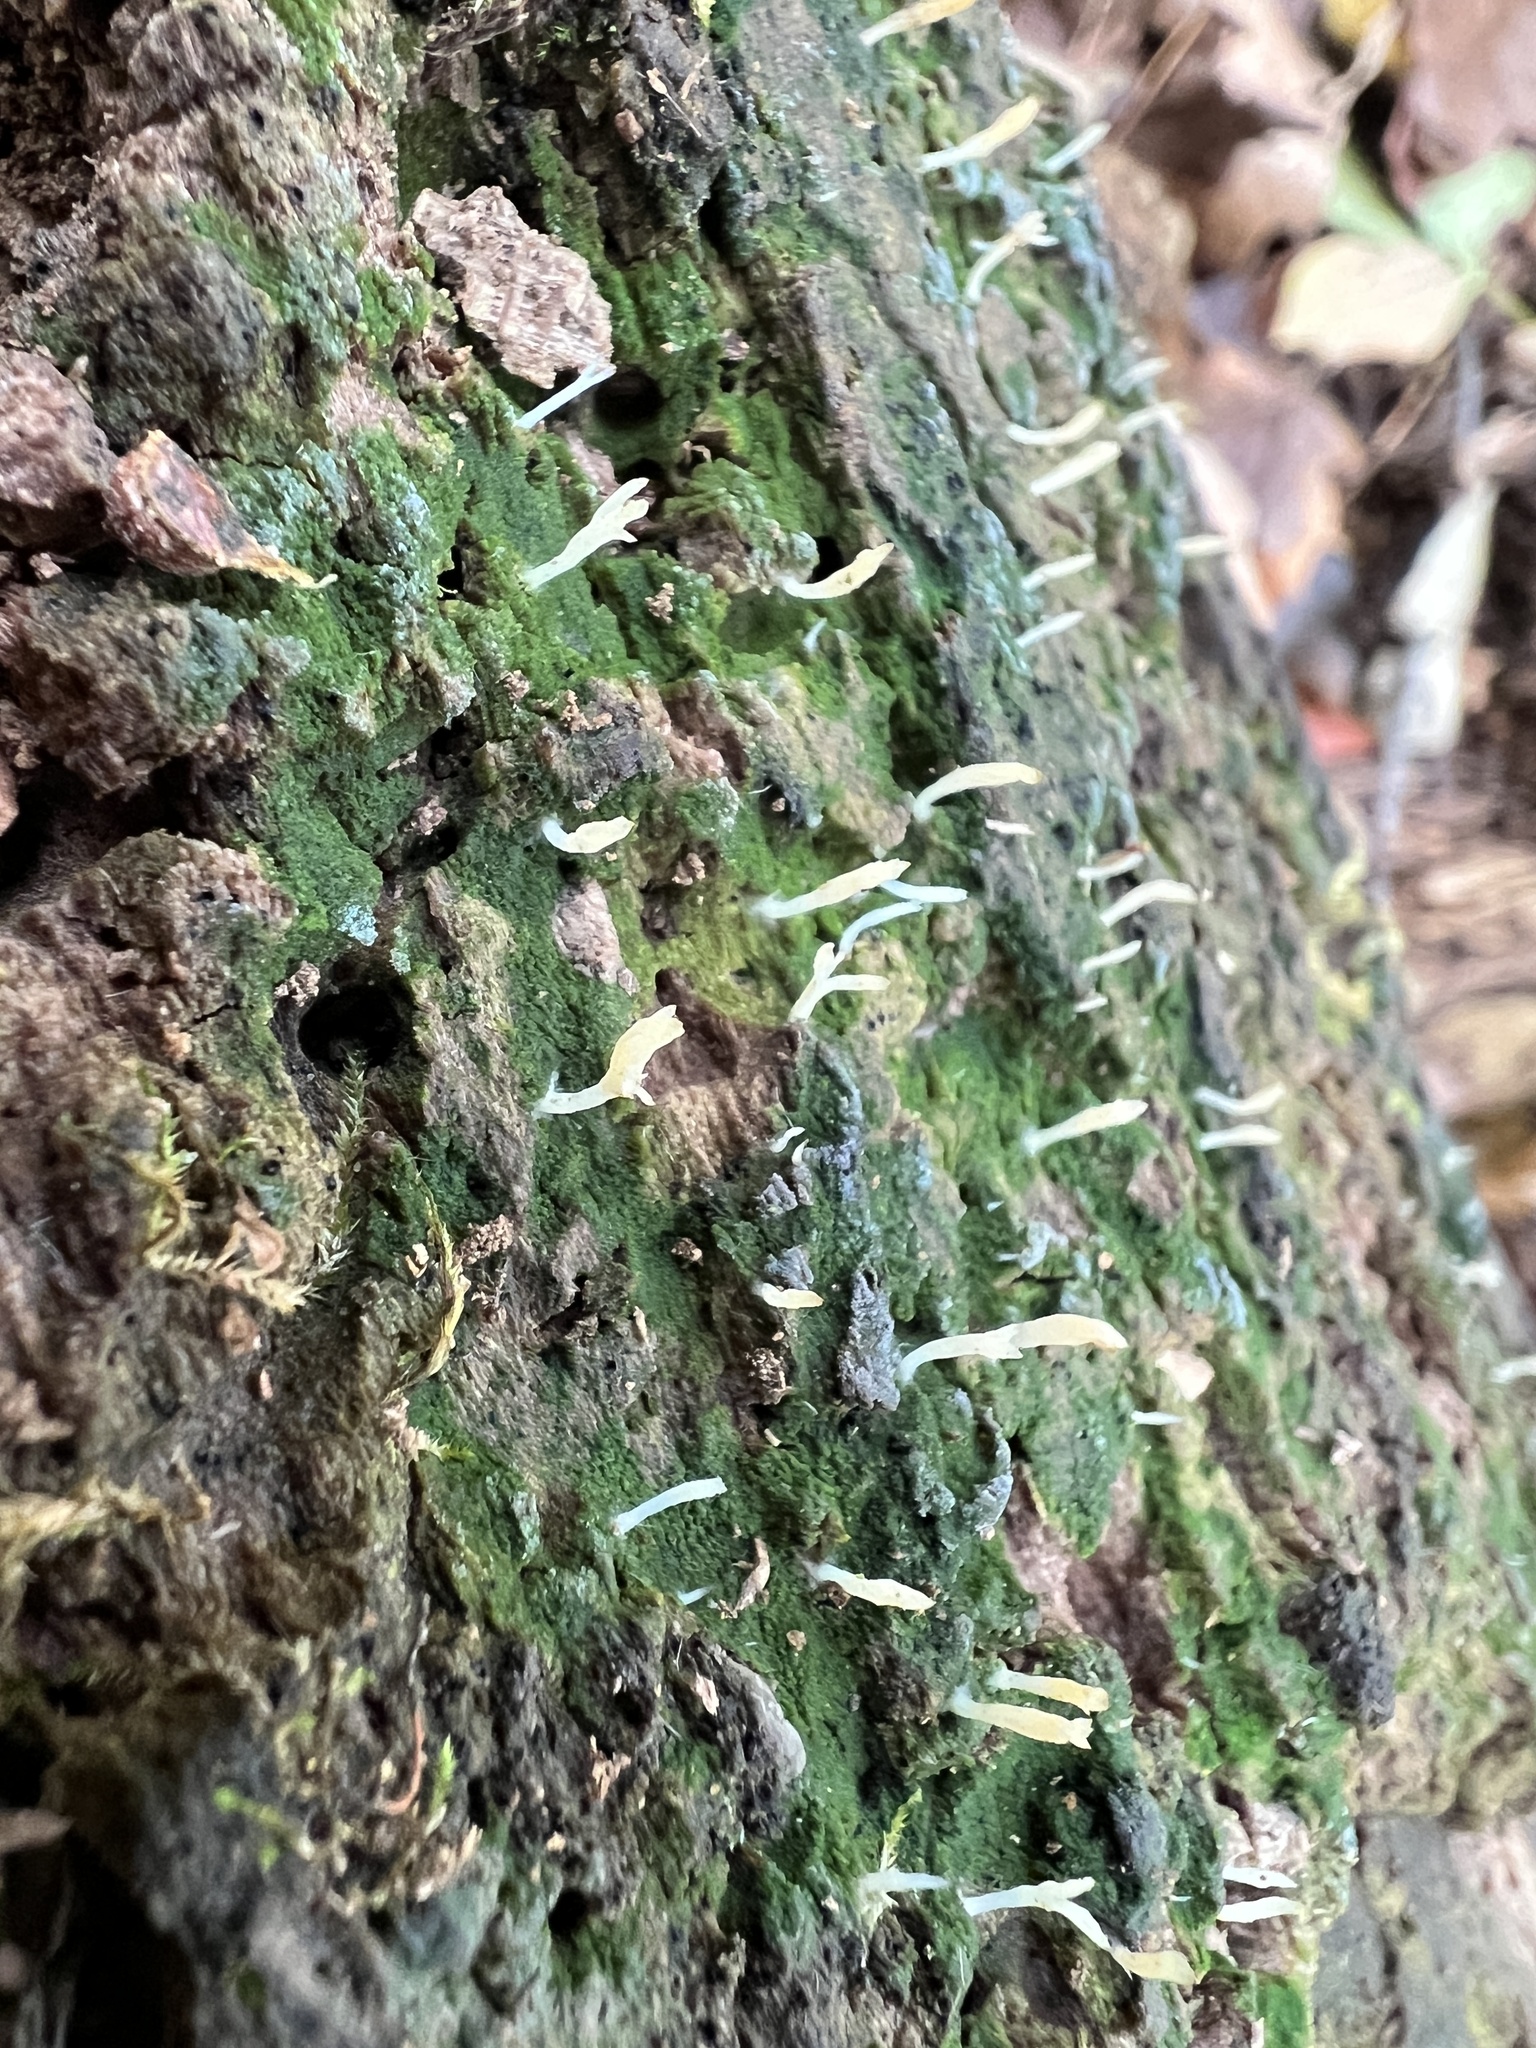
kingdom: Fungi
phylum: Basidiomycota
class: Agaricomycetes
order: Cantharellales
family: Hydnaceae
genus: Multiclavula
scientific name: Multiclavula mucida
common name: White green-algae coral
